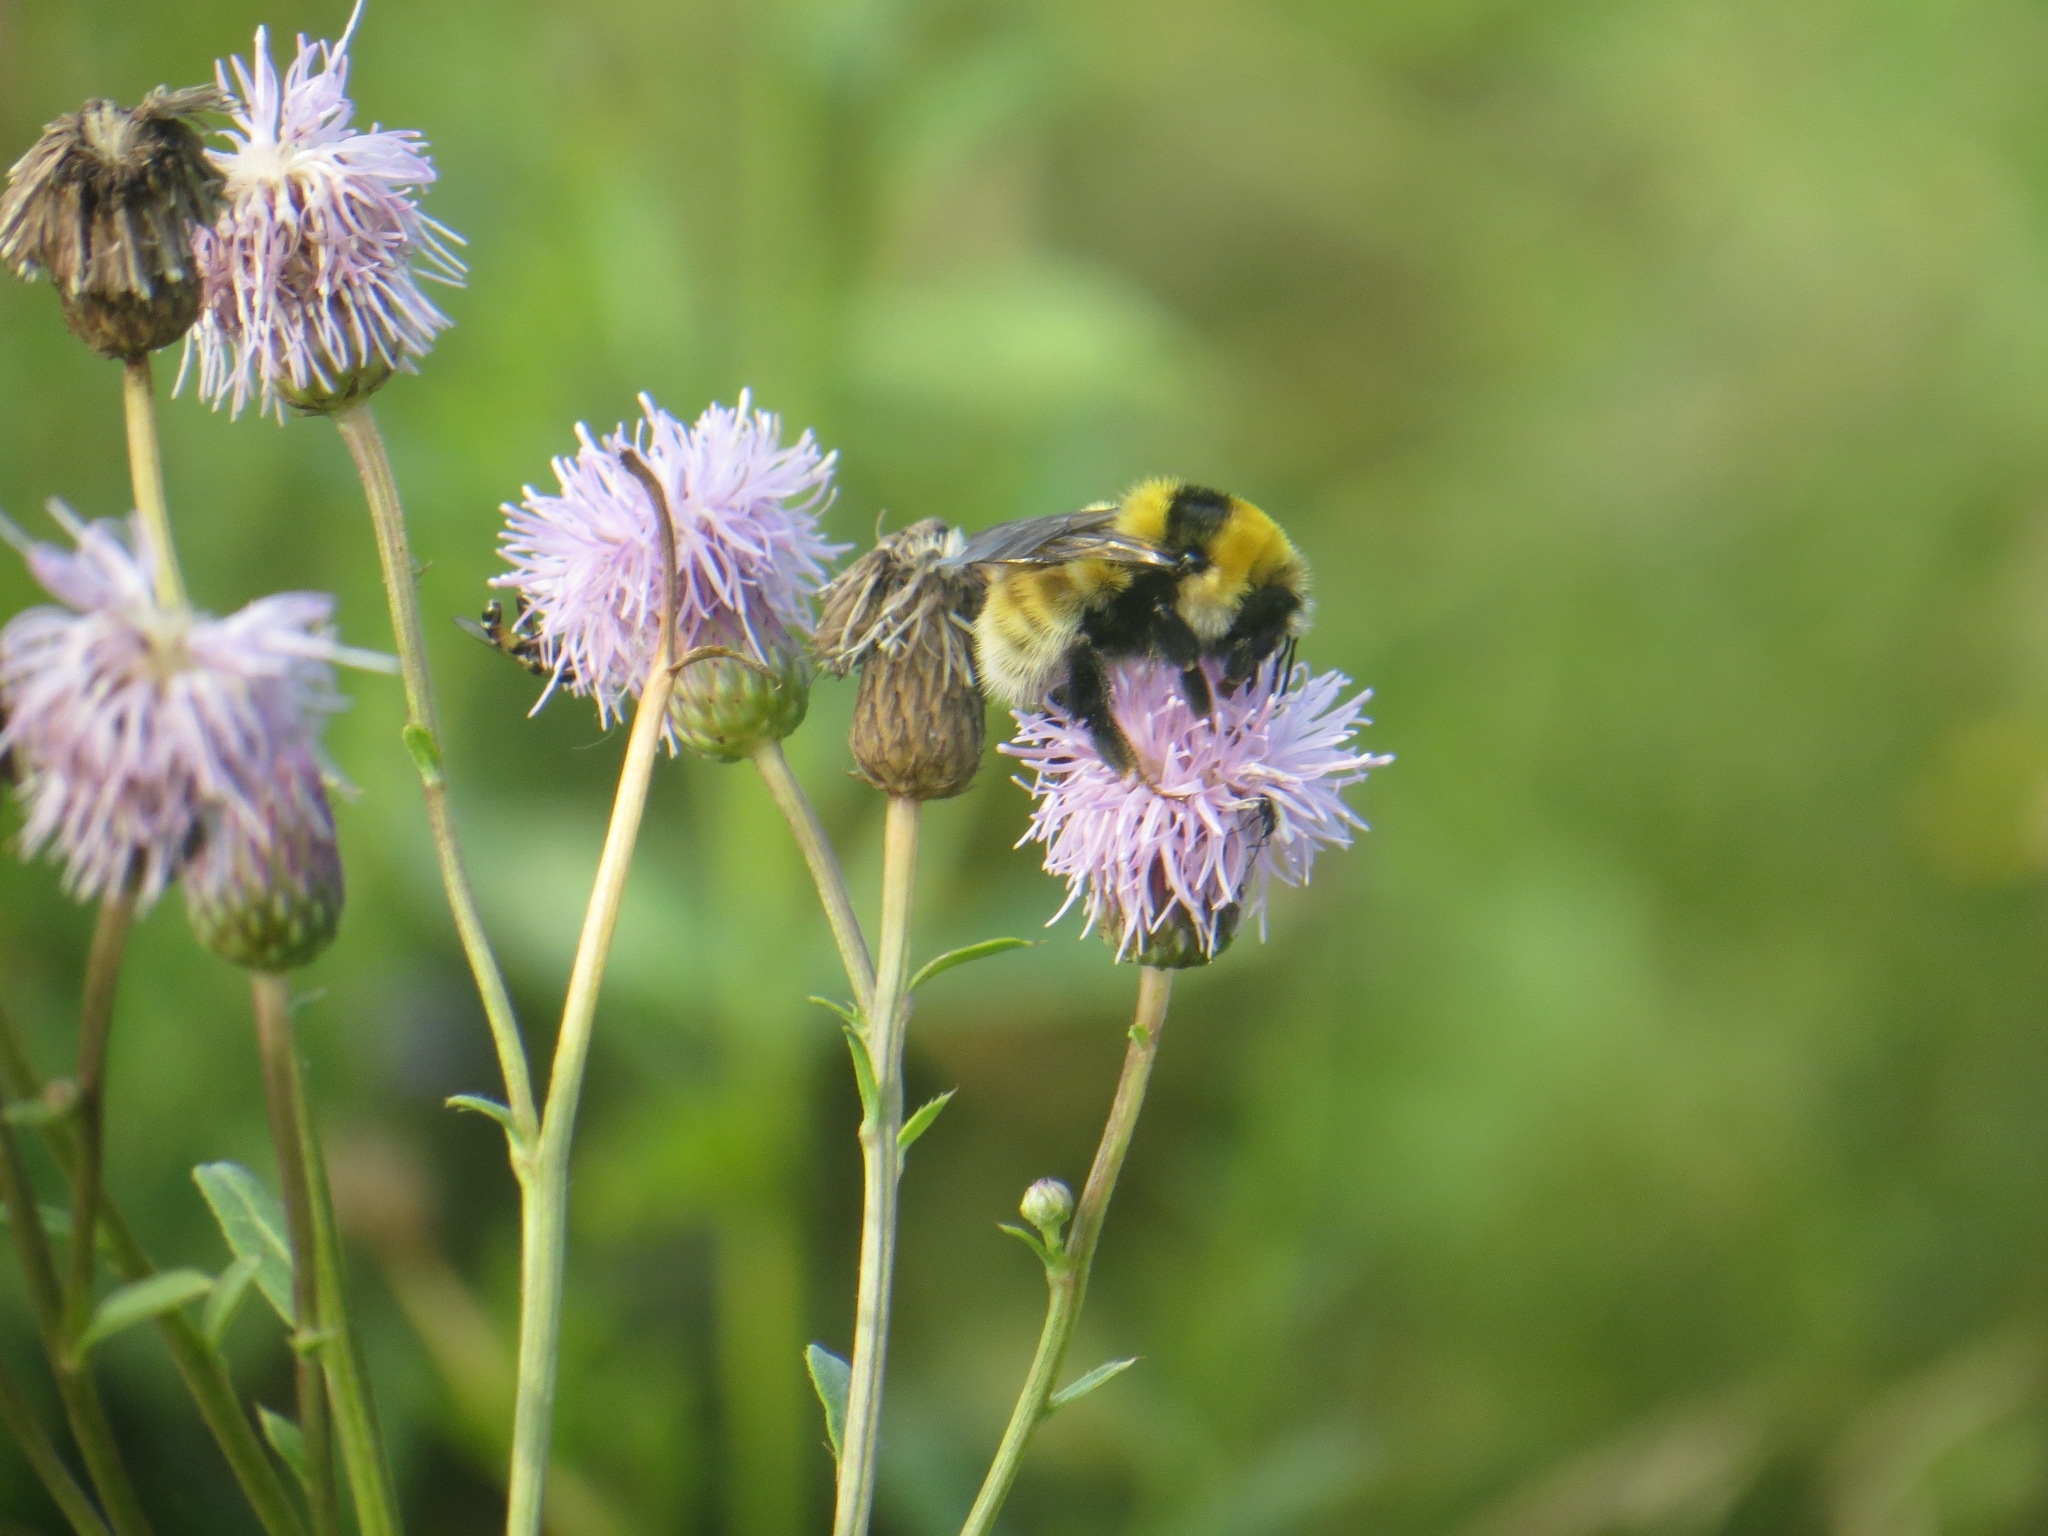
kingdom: Animalia
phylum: Arthropoda
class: Insecta
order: Hymenoptera
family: Apidae
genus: Bombus
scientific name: Bombus distinguendus
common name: Great yellow humble-bee
